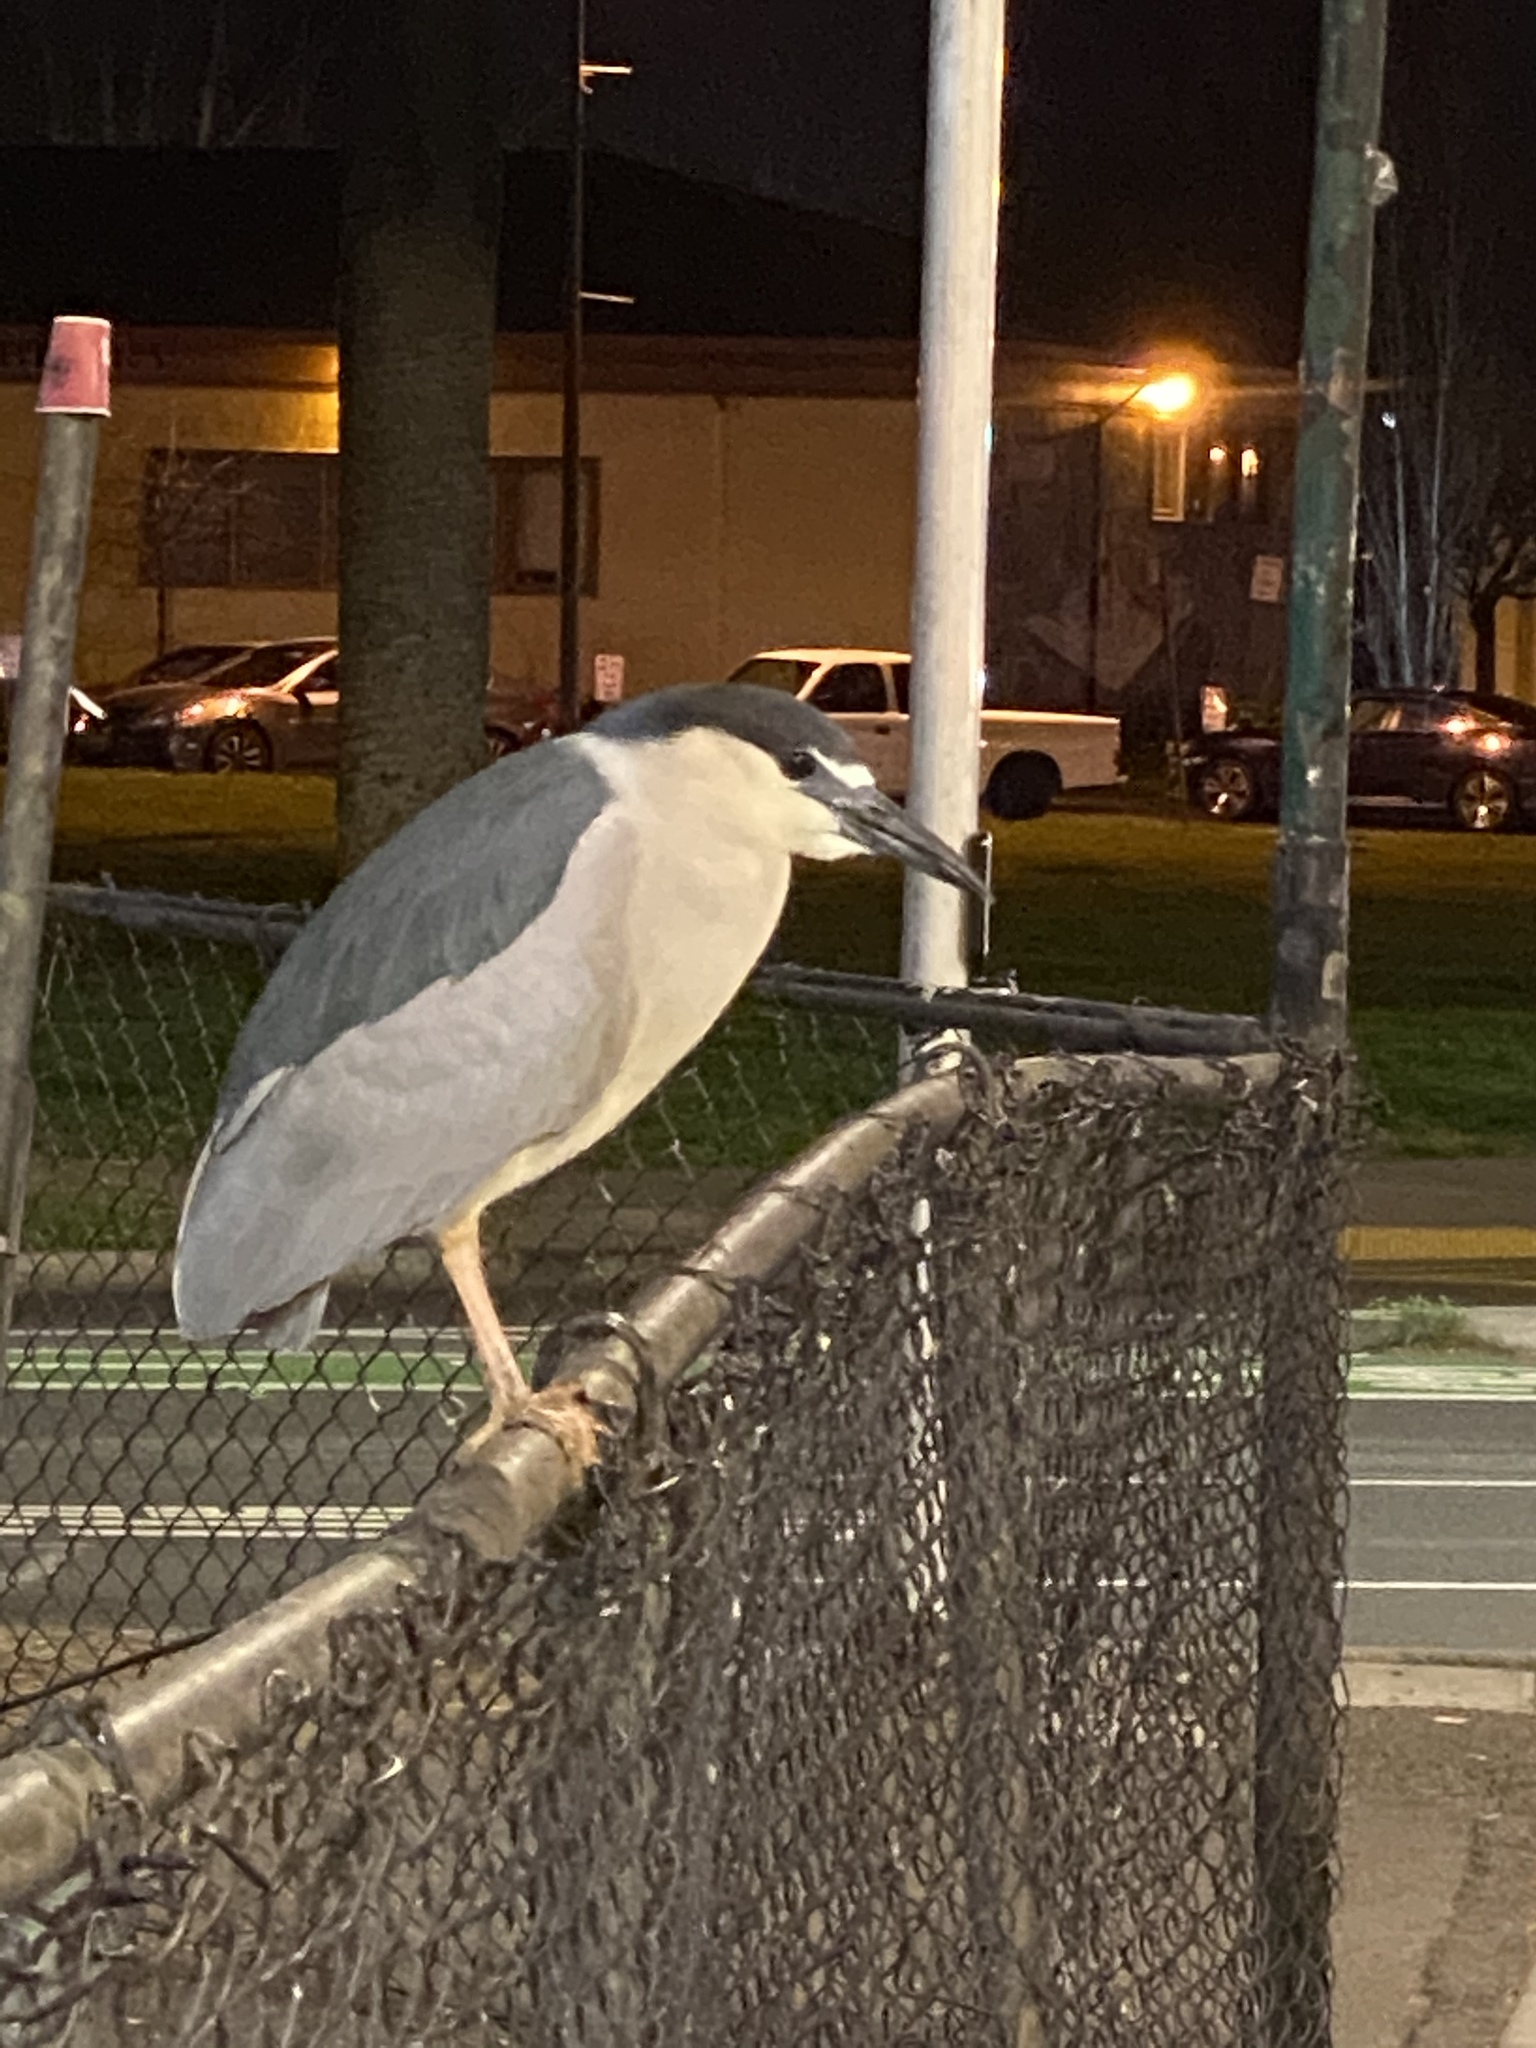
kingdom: Animalia
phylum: Chordata
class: Aves
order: Pelecaniformes
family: Ardeidae
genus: Nycticorax
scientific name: Nycticorax nycticorax
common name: Black-crowned night heron
